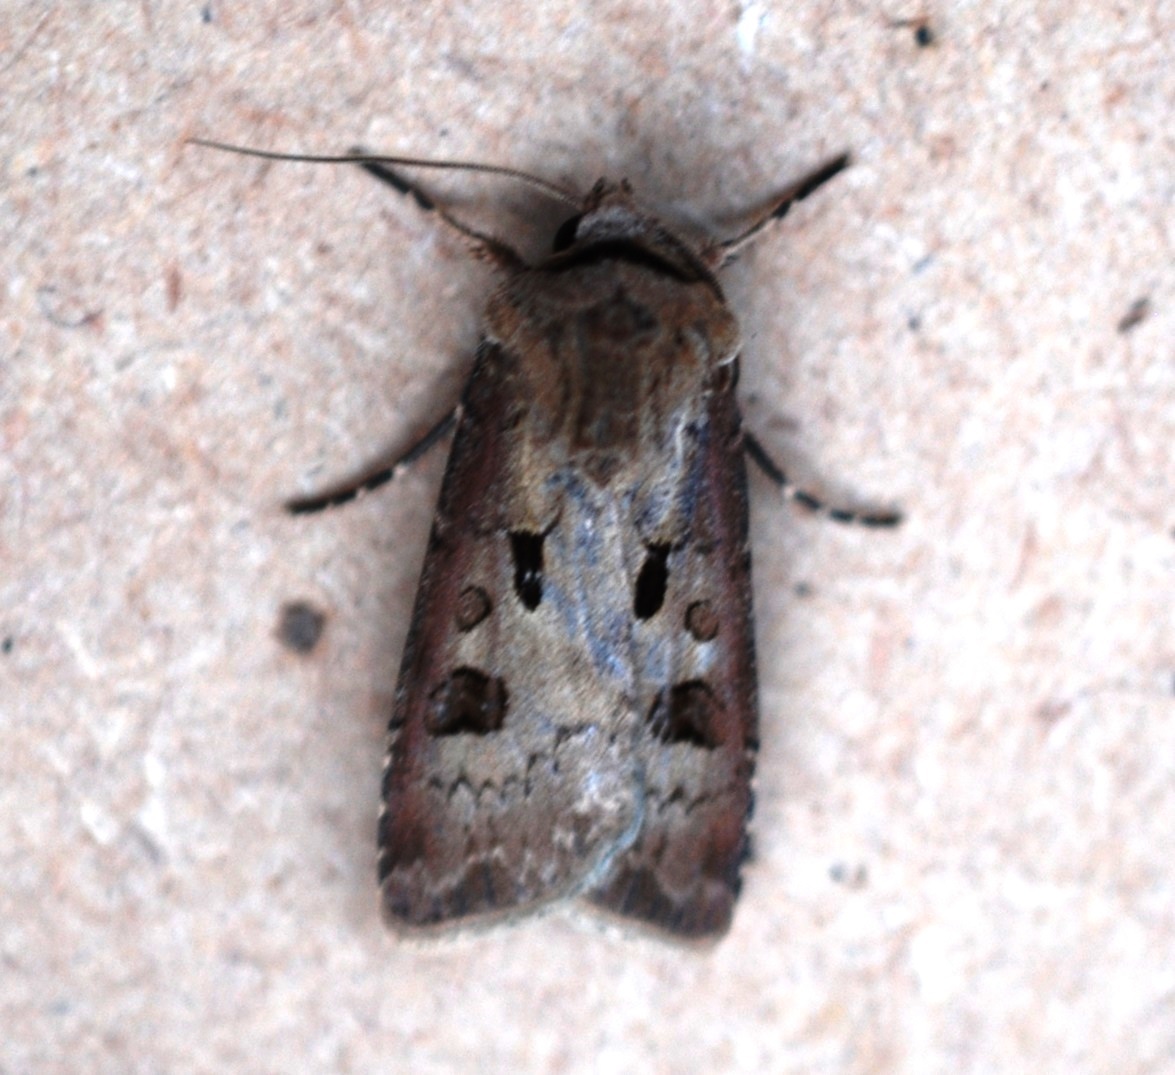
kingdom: Animalia
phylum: Arthropoda
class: Insecta
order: Lepidoptera
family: Noctuidae
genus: Agrotis
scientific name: Agrotis exclamationis
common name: Heart and dart
